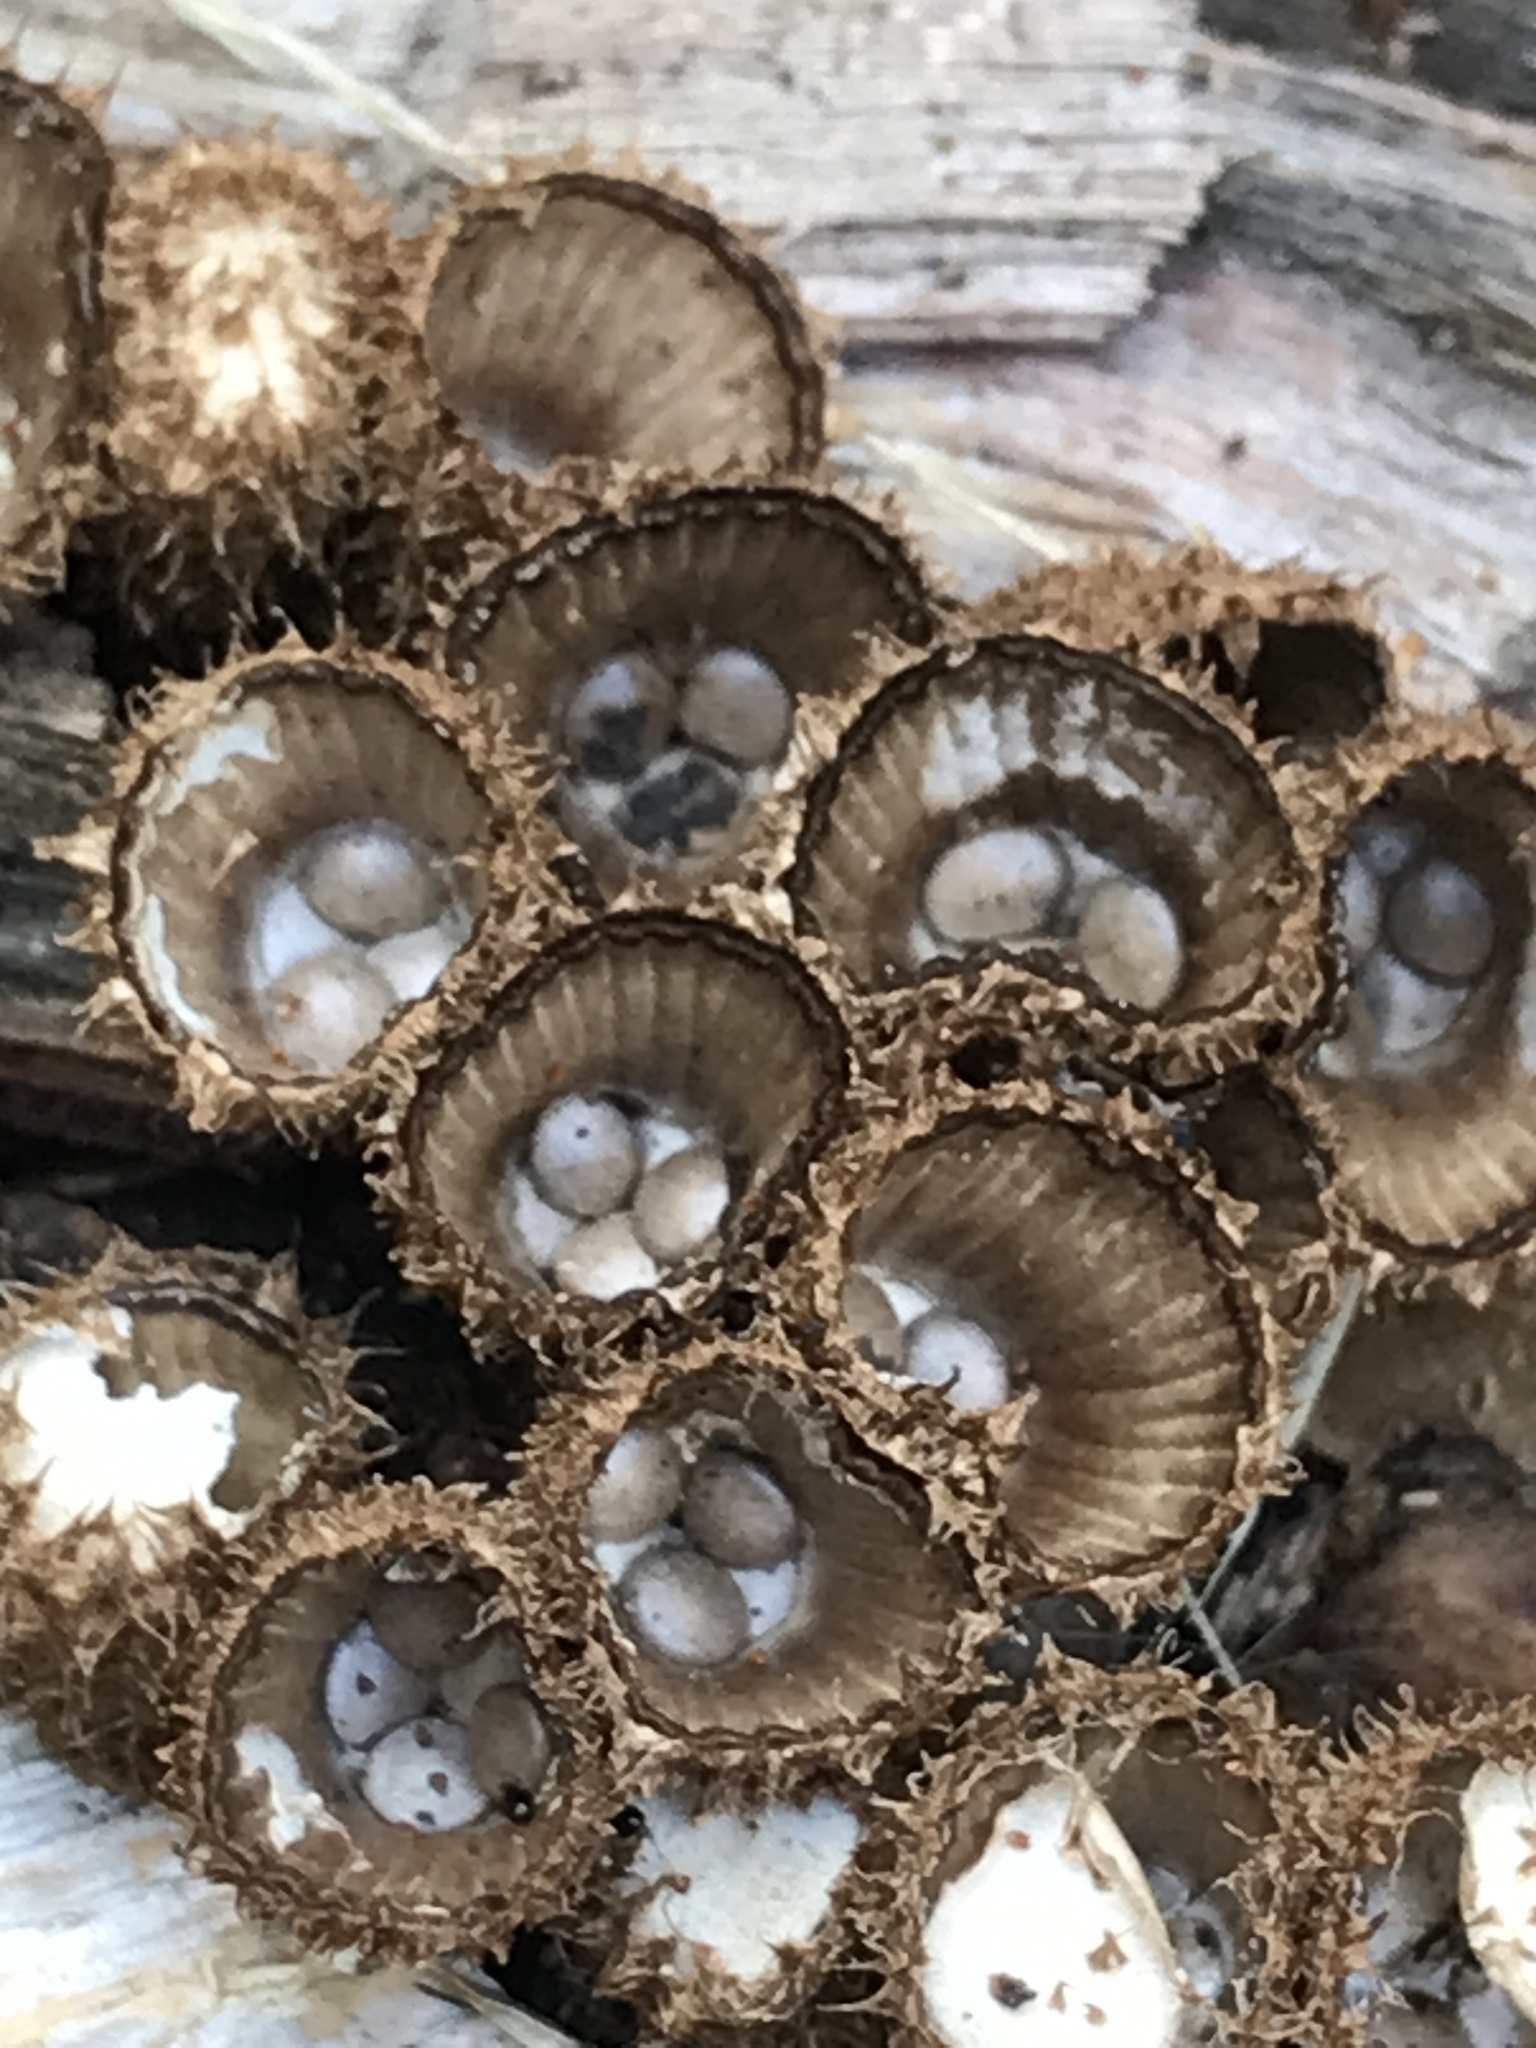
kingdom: Fungi
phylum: Basidiomycota
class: Agaricomycetes
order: Agaricales
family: Agaricaceae
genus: Cyathus
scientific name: Cyathus striatus
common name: Fluted bird's nest
